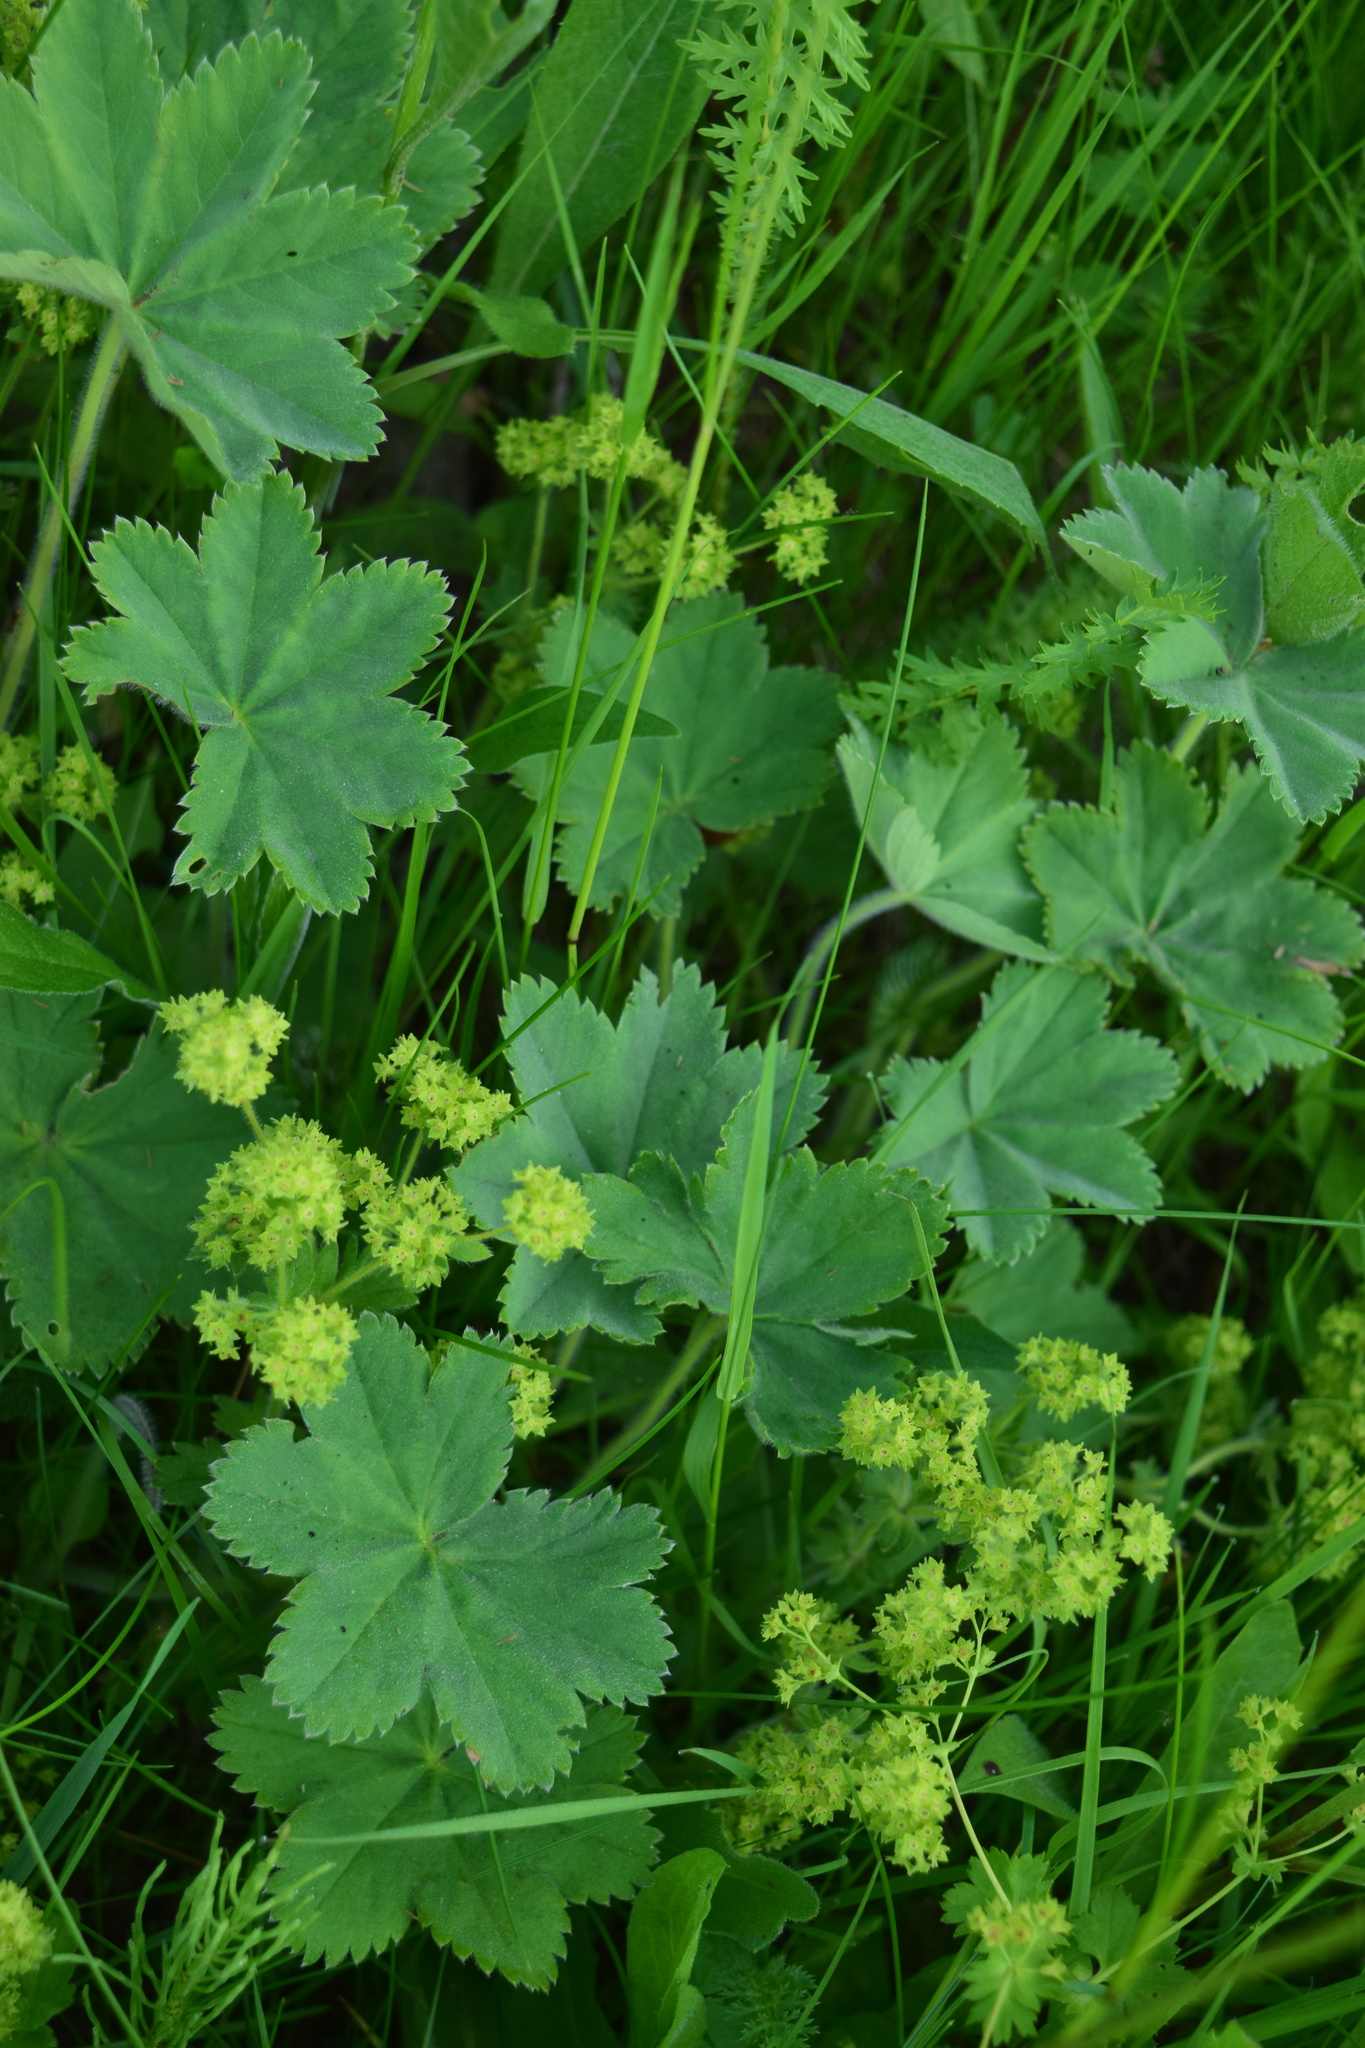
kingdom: Plantae
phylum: Tracheophyta
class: Magnoliopsida
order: Rosales
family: Rosaceae
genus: Alchemilla
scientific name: Alchemilla hirsuticaulis
